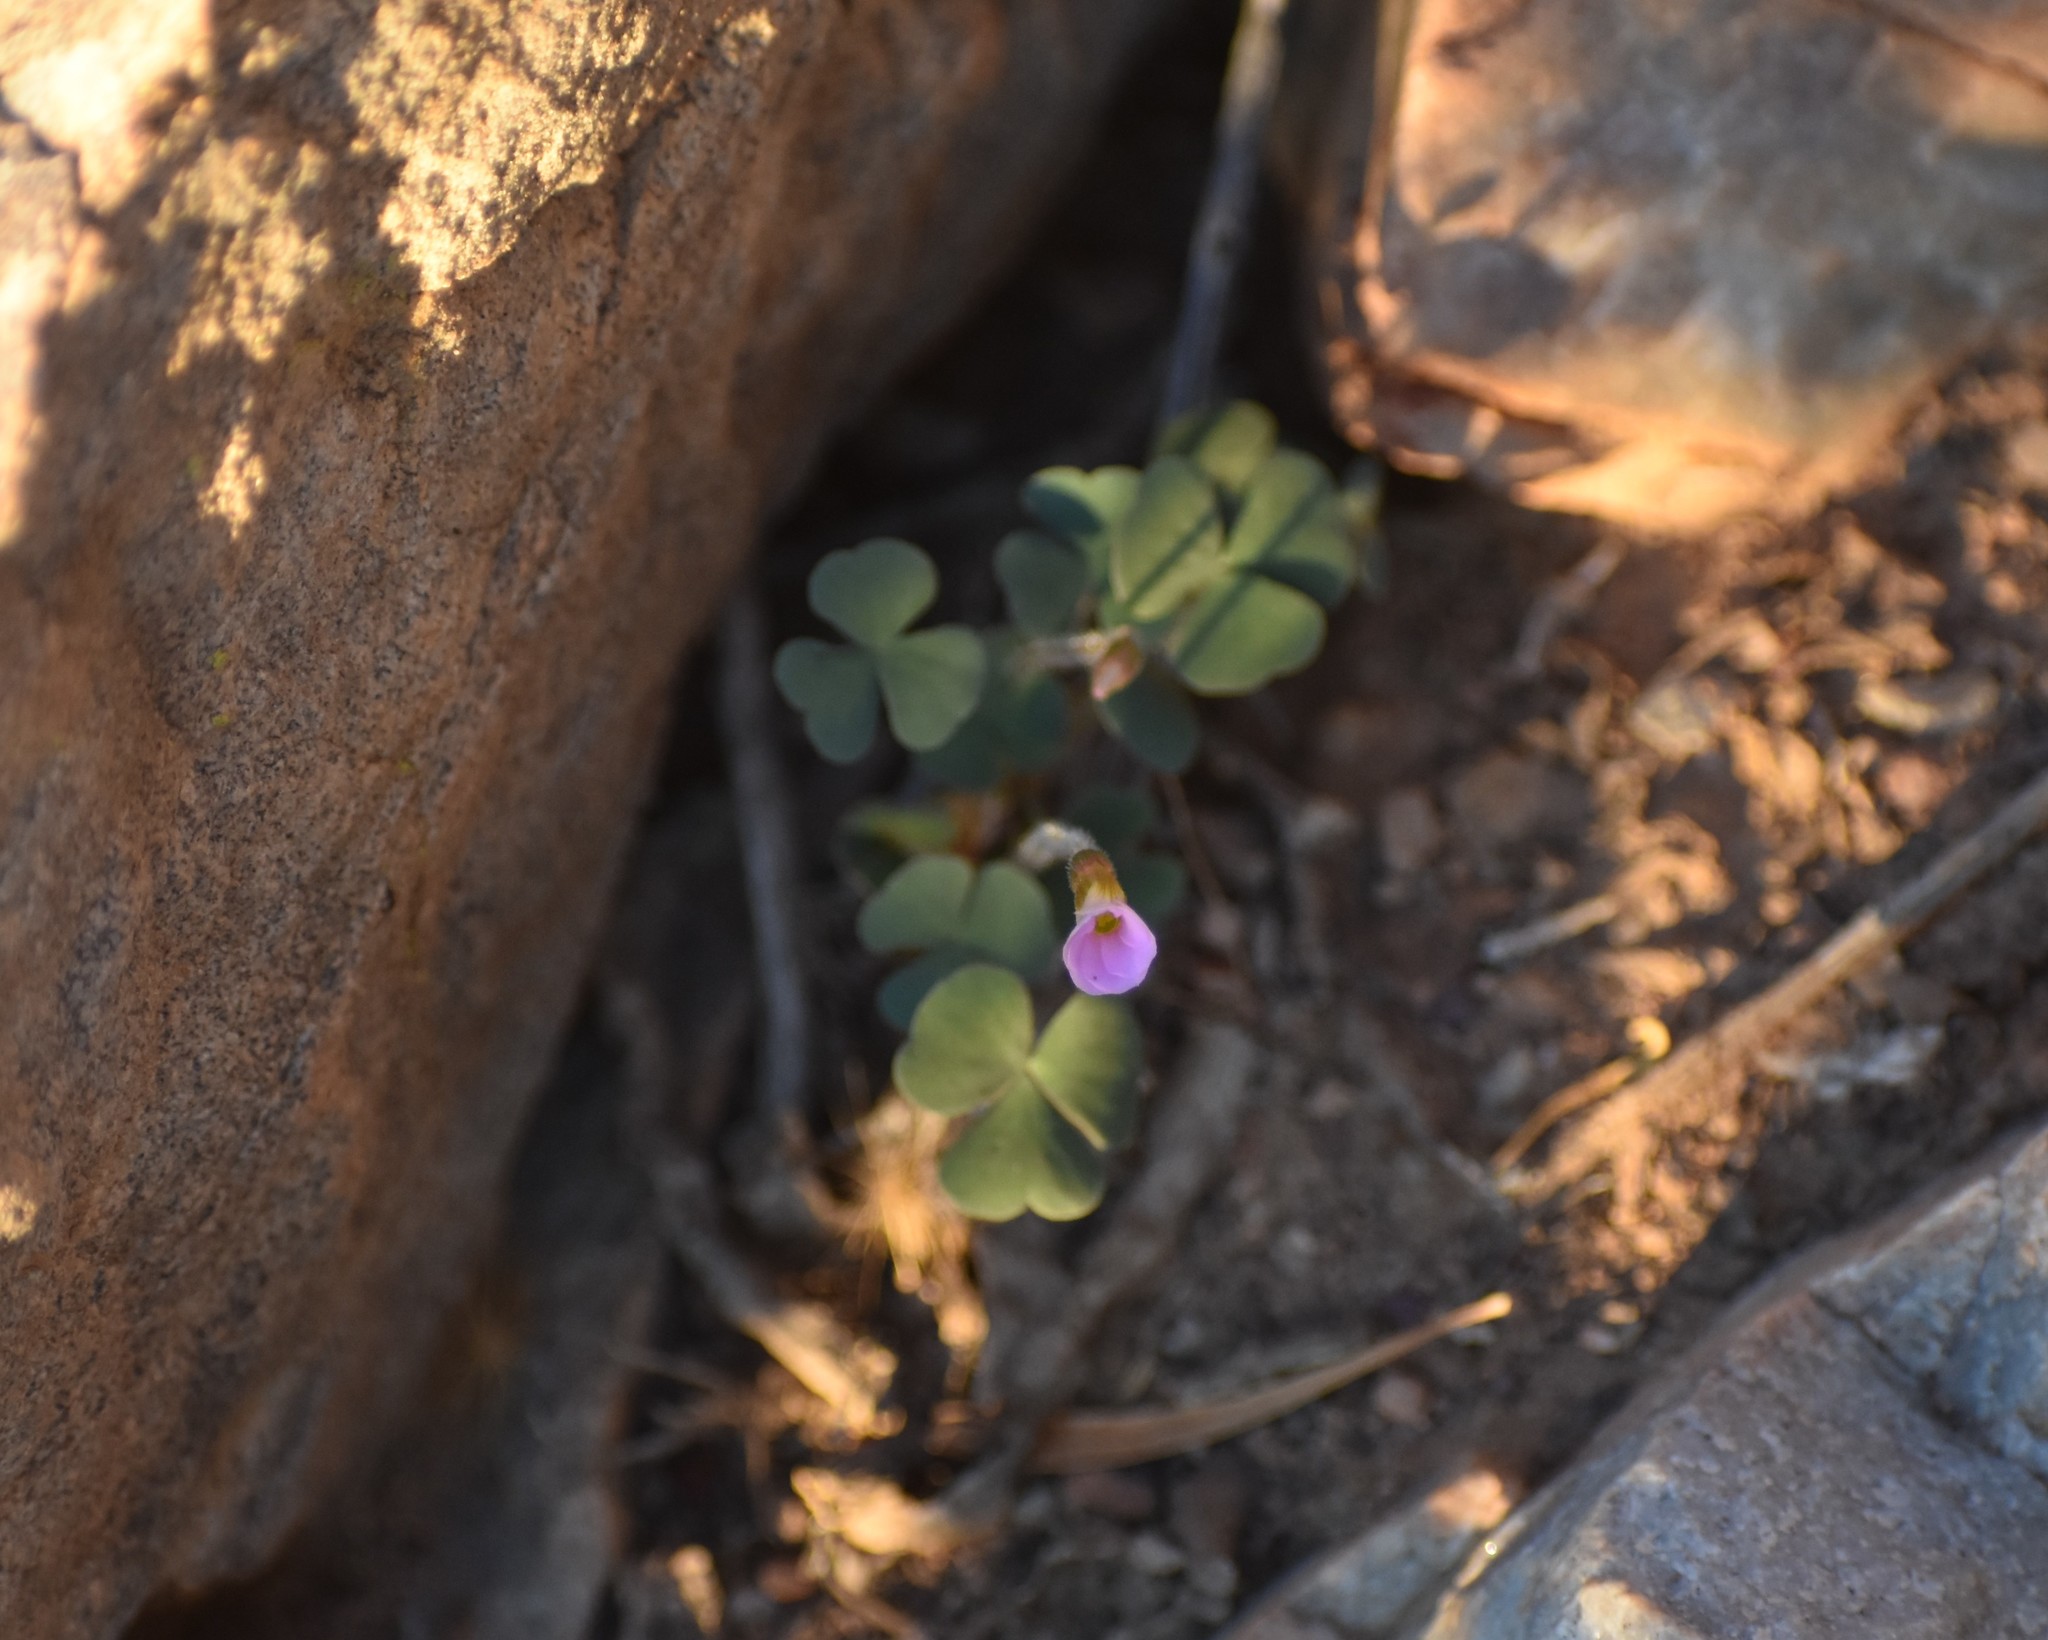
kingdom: Plantae
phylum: Tracheophyta
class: Magnoliopsida
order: Oxalidales
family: Oxalidaceae
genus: Oxalis
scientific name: Oxalis punctata
